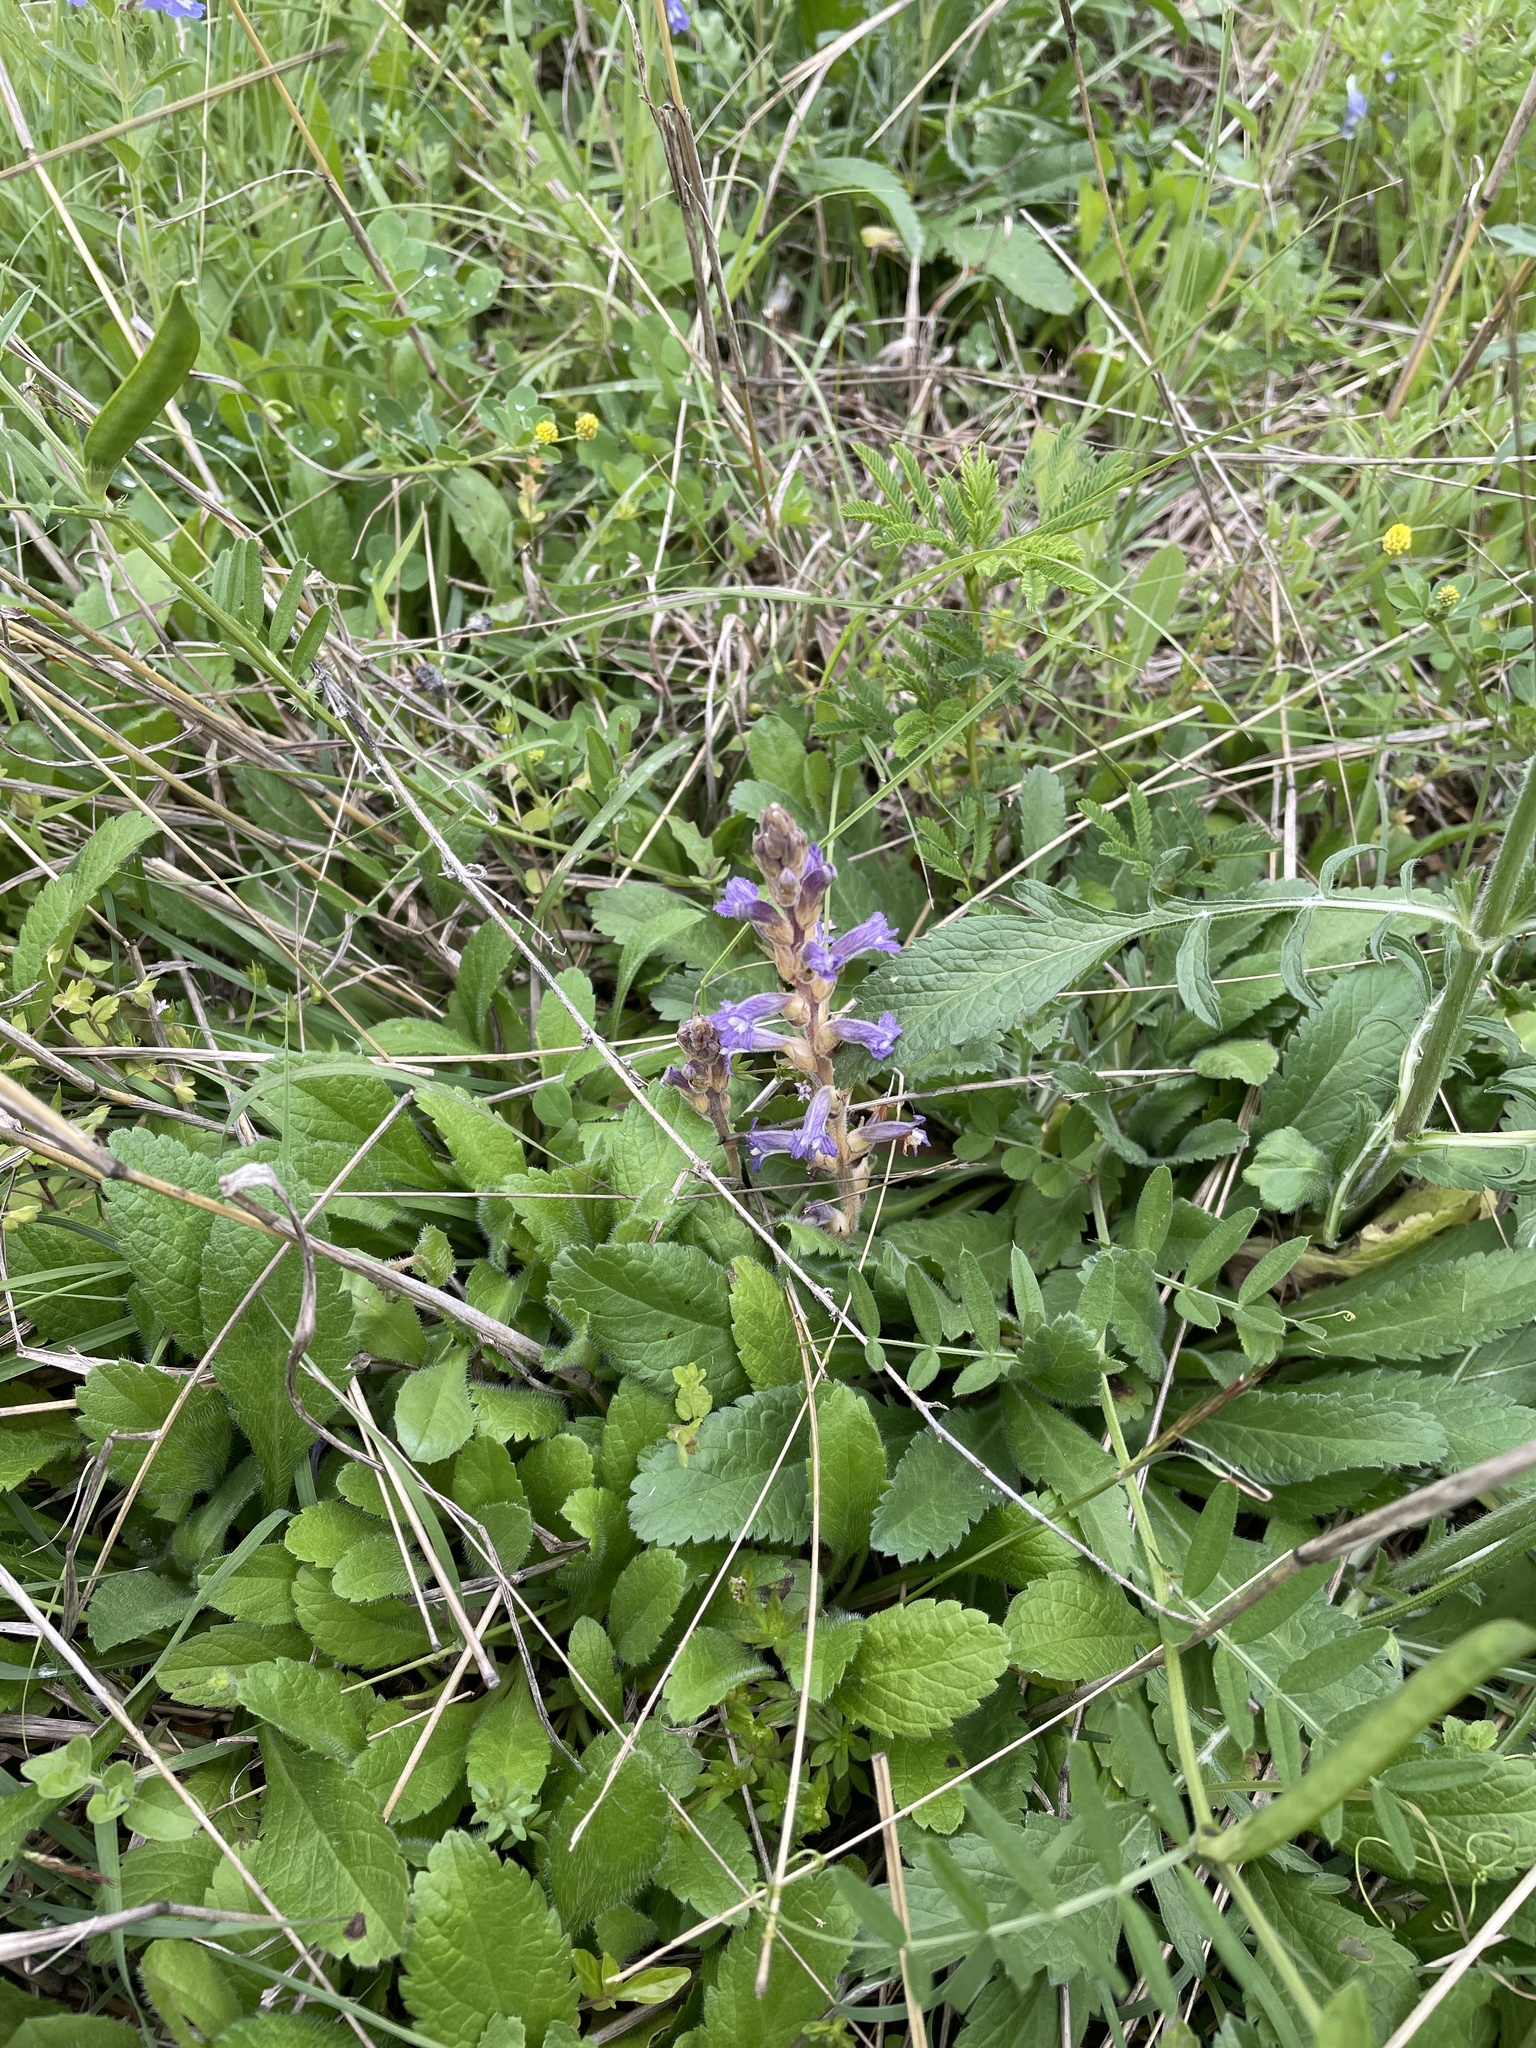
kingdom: Plantae
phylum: Tracheophyta
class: Magnoliopsida
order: Lamiales
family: Orobanchaceae
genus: Phelipanche
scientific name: Phelipanche mutelii
